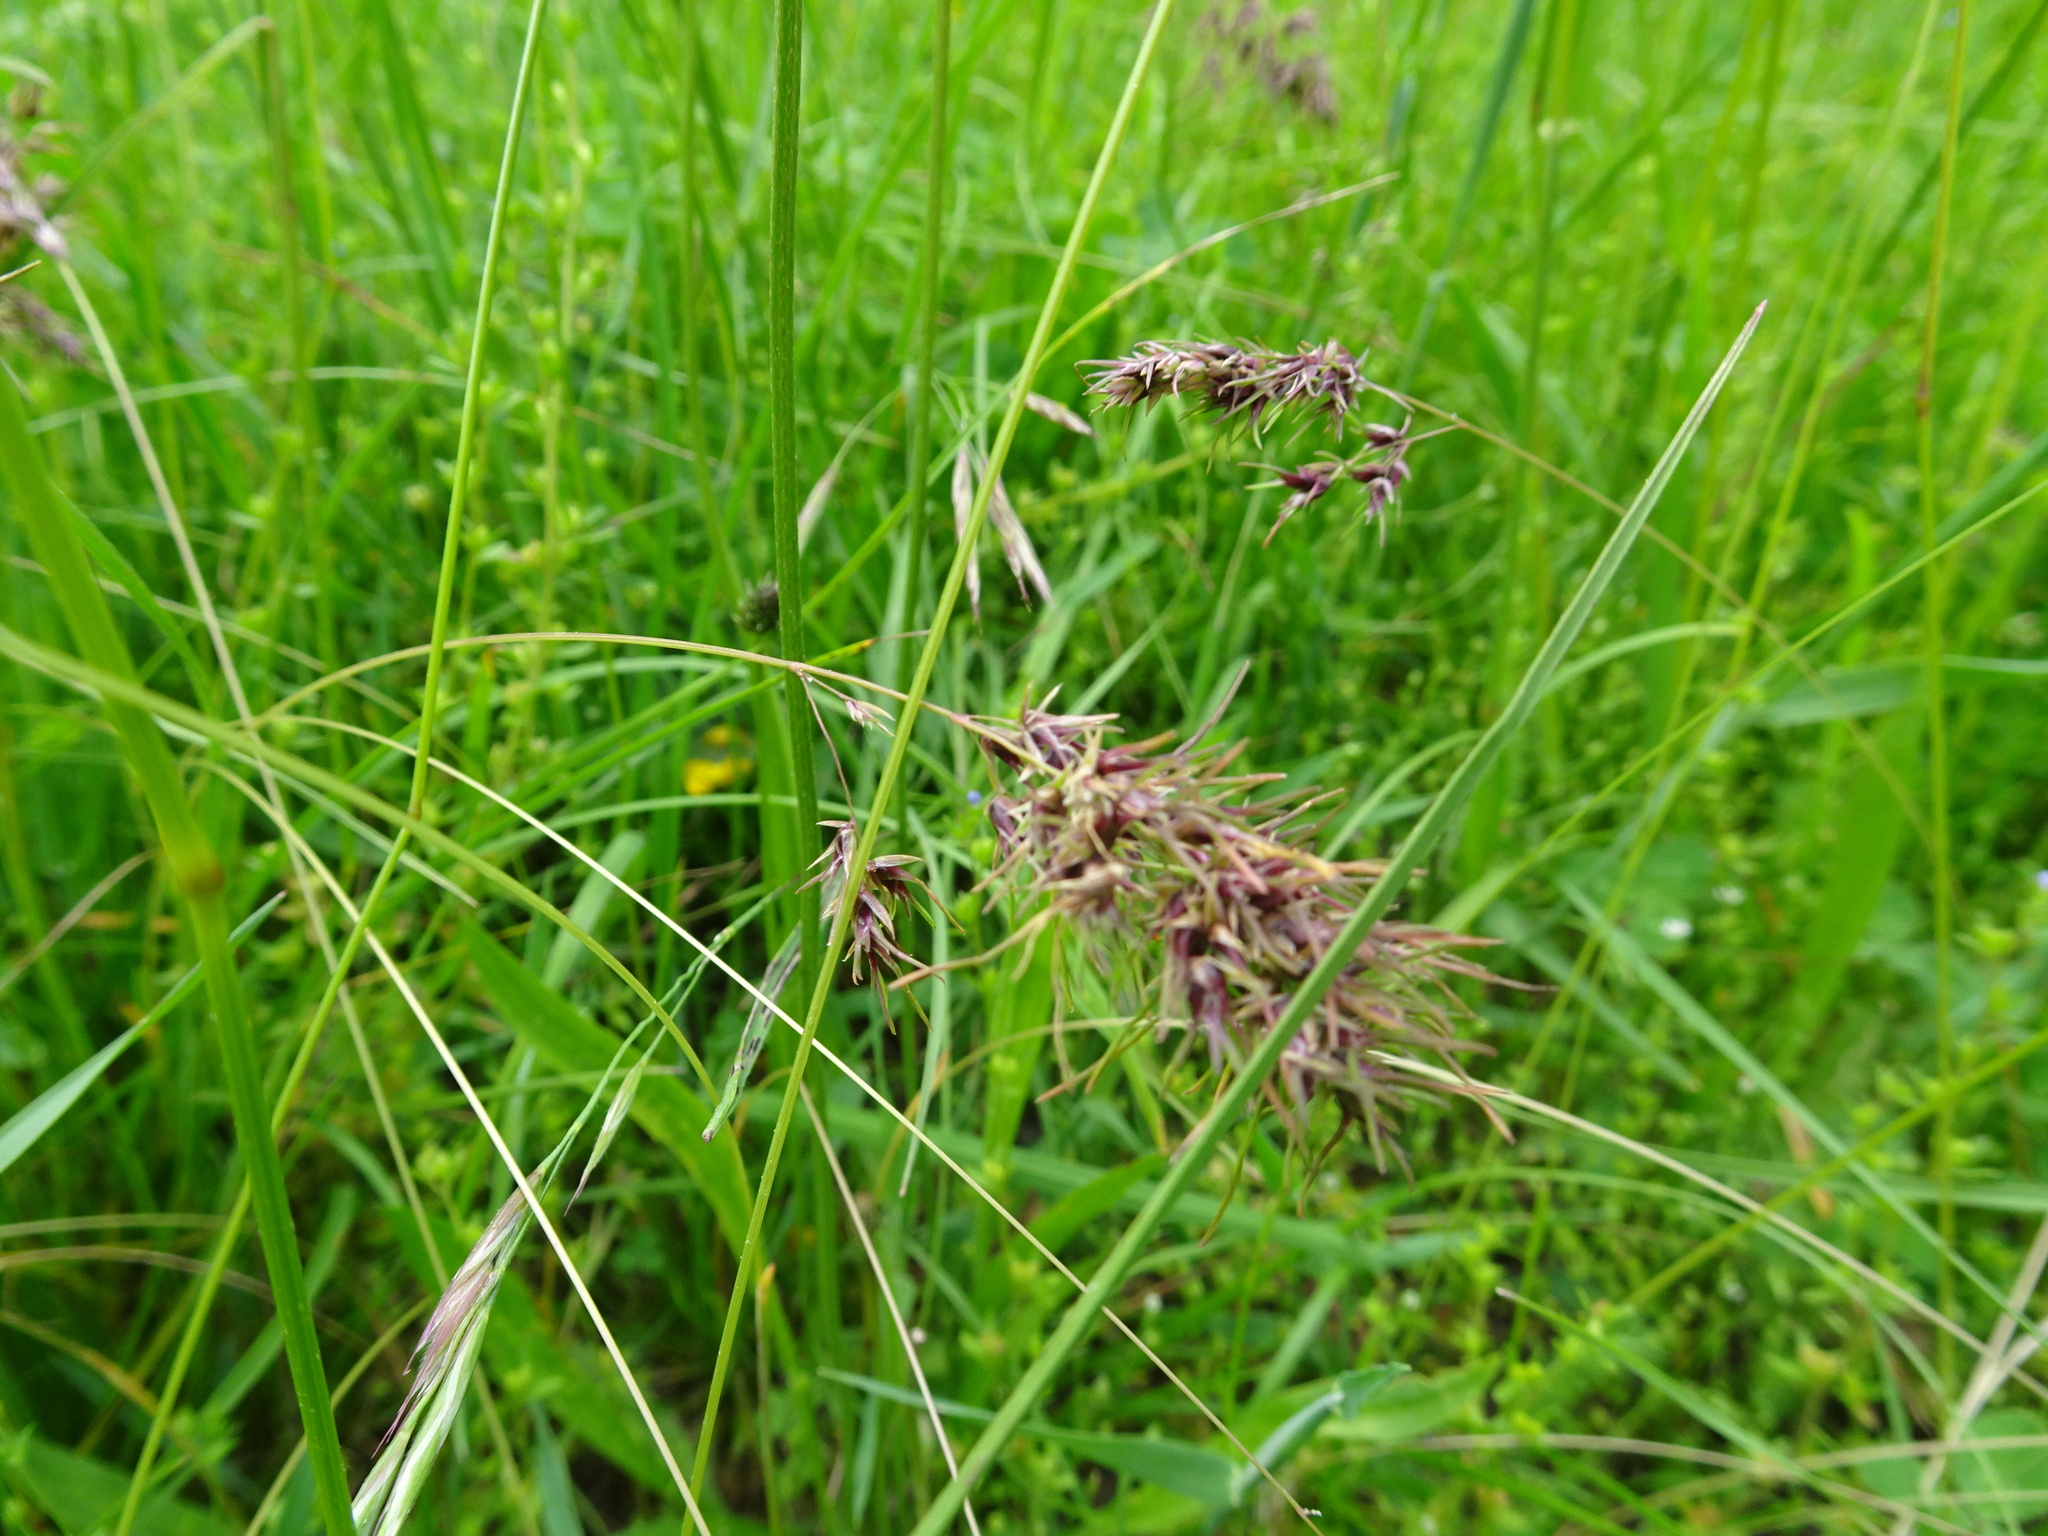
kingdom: Plantae
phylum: Tracheophyta
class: Liliopsida
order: Poales
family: Poaceae
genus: Poa
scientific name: Poa bulbosa
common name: Bulbous bluegrass
